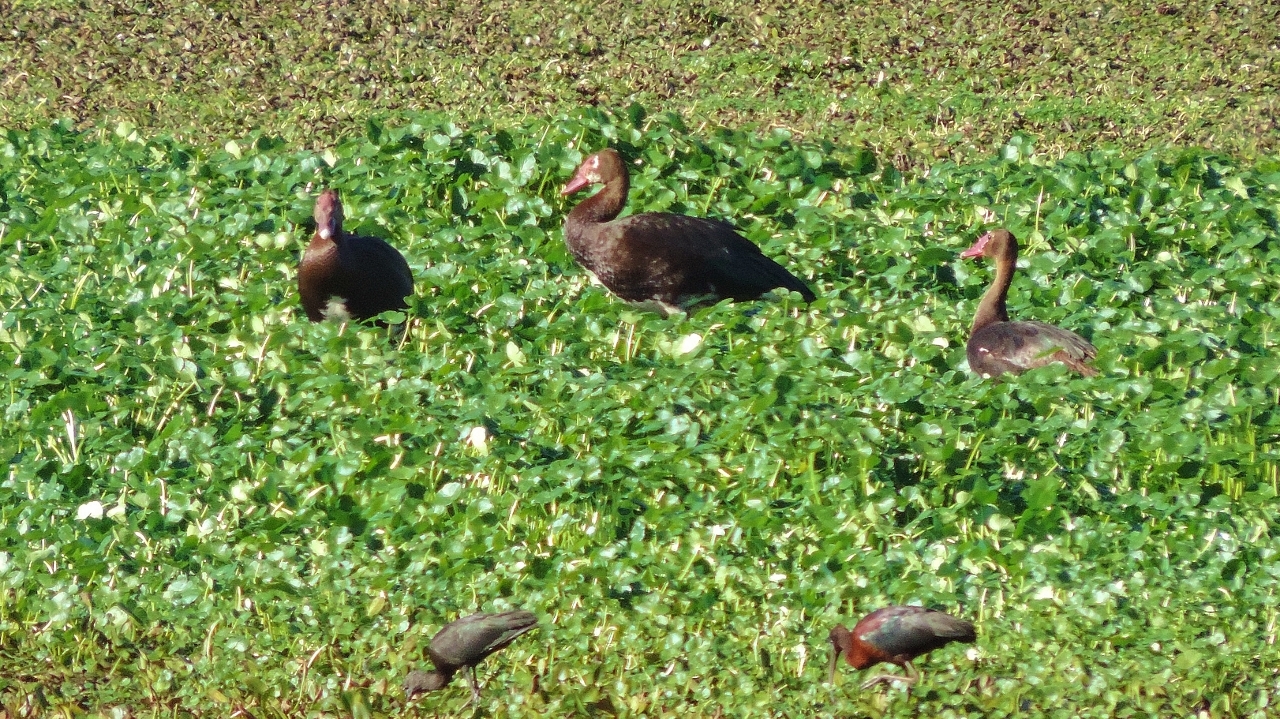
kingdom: Animalia
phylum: Chordata
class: Aves
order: Anseriformes
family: Anatidae
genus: Plectropterus
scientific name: Plectropterus gambensis
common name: Spur-winged goose
